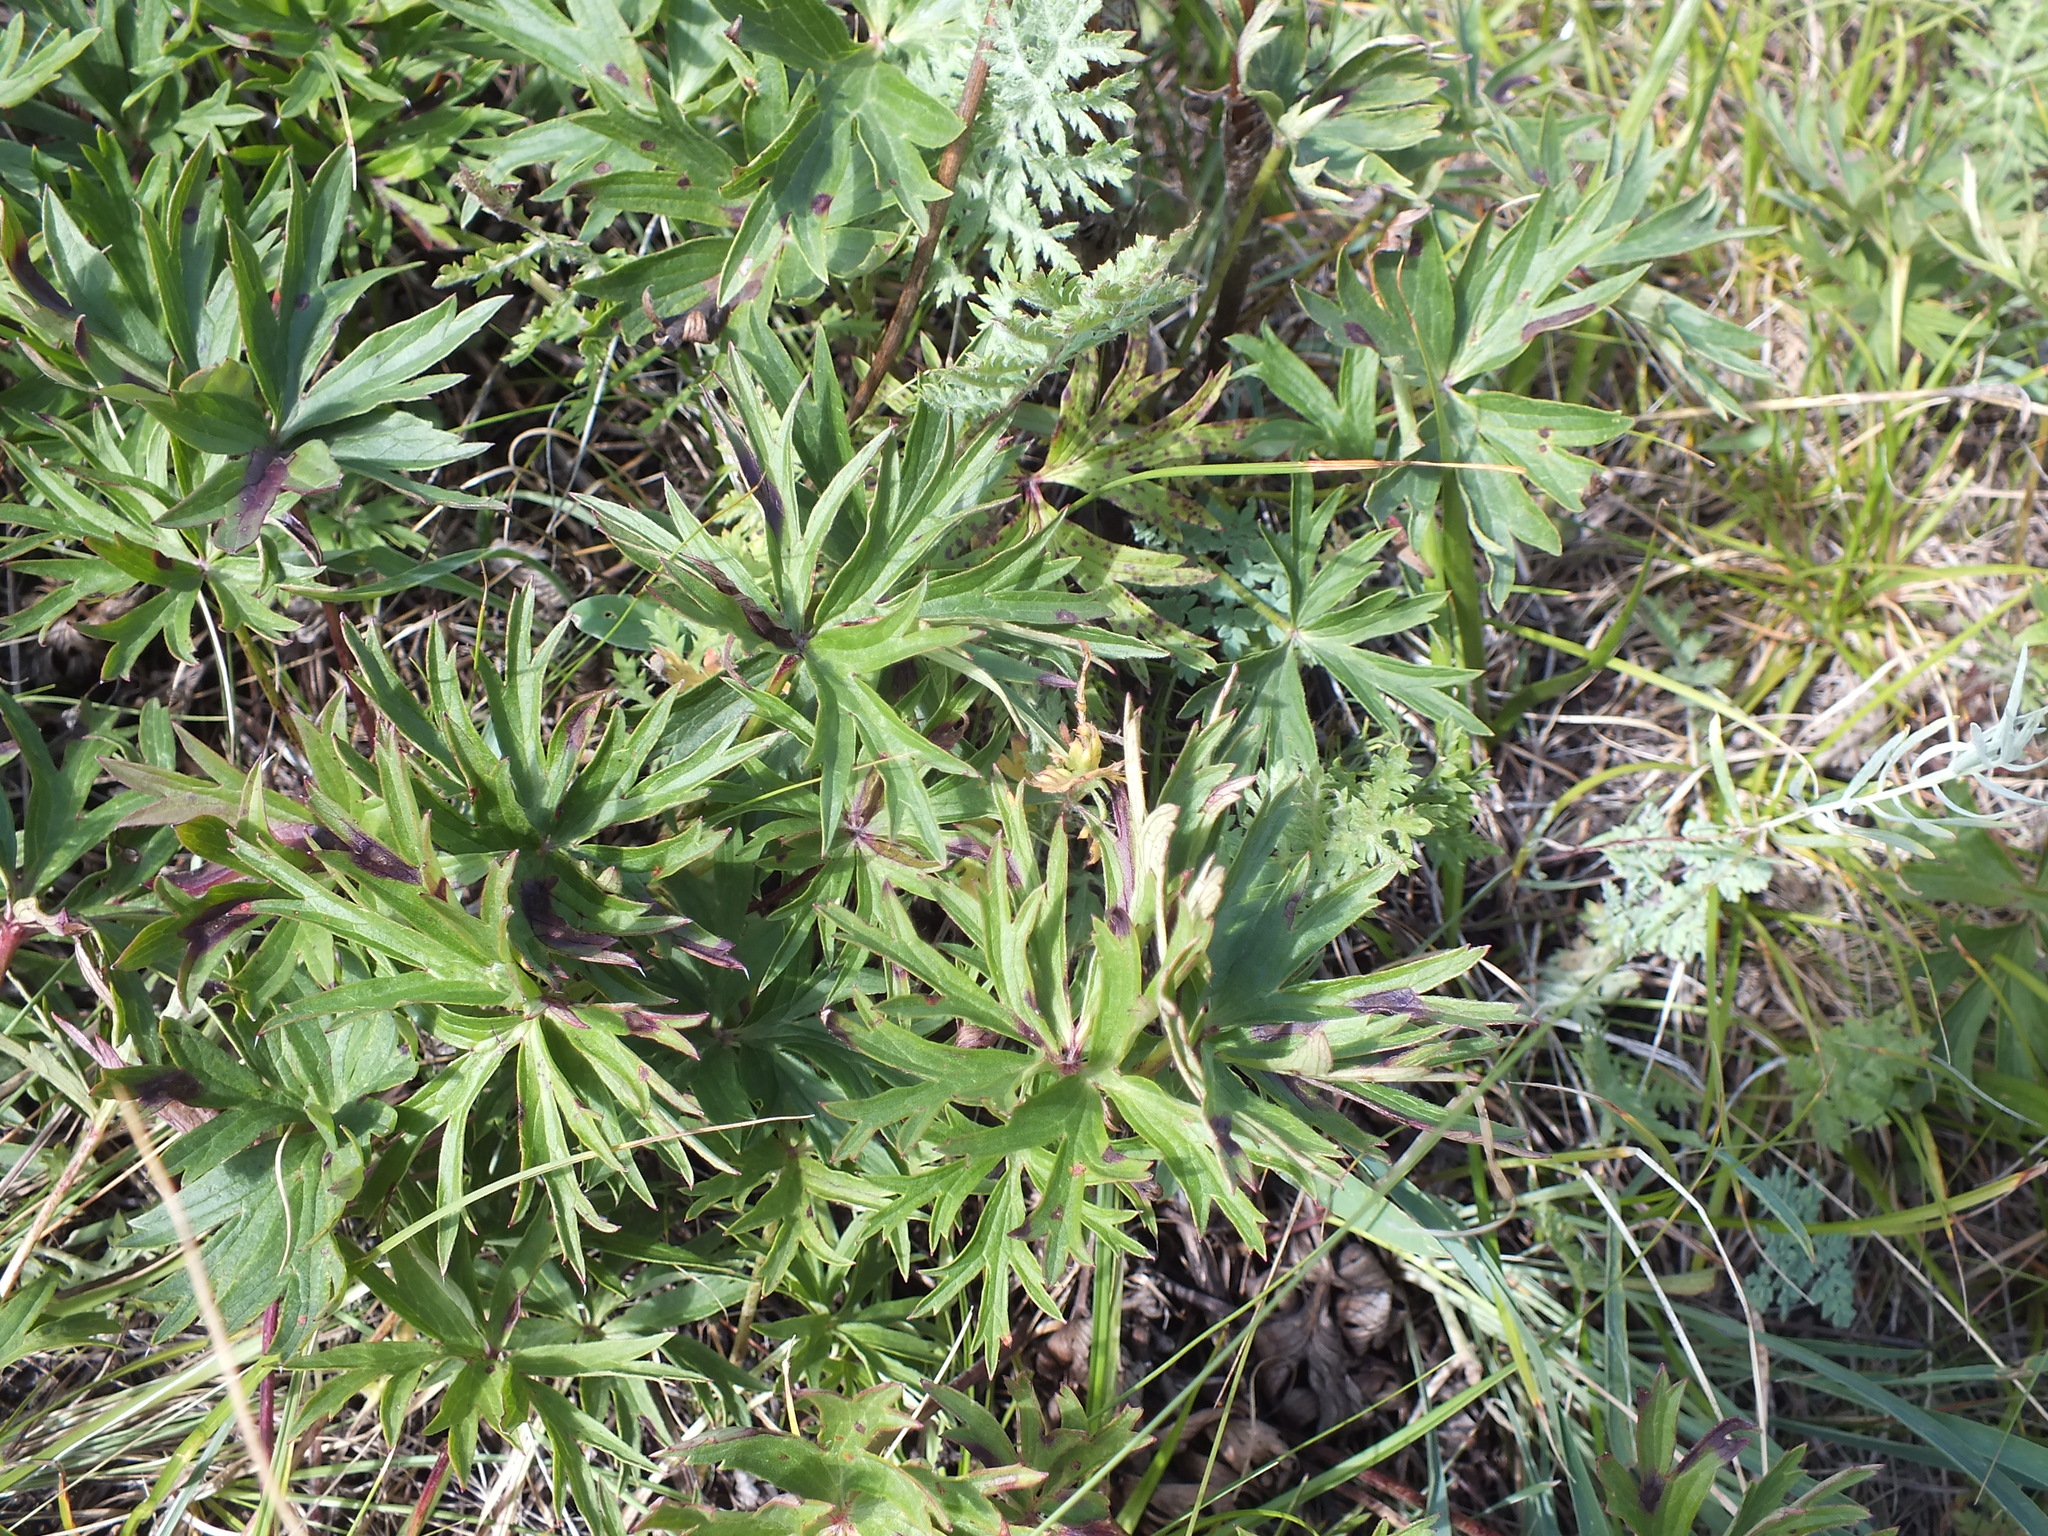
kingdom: Plantae
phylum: Tracheophyta
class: Magnoliopsida
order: Ranunculales
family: Ranunculaceae
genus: Pulsatilla
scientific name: Pulsatilla patens
